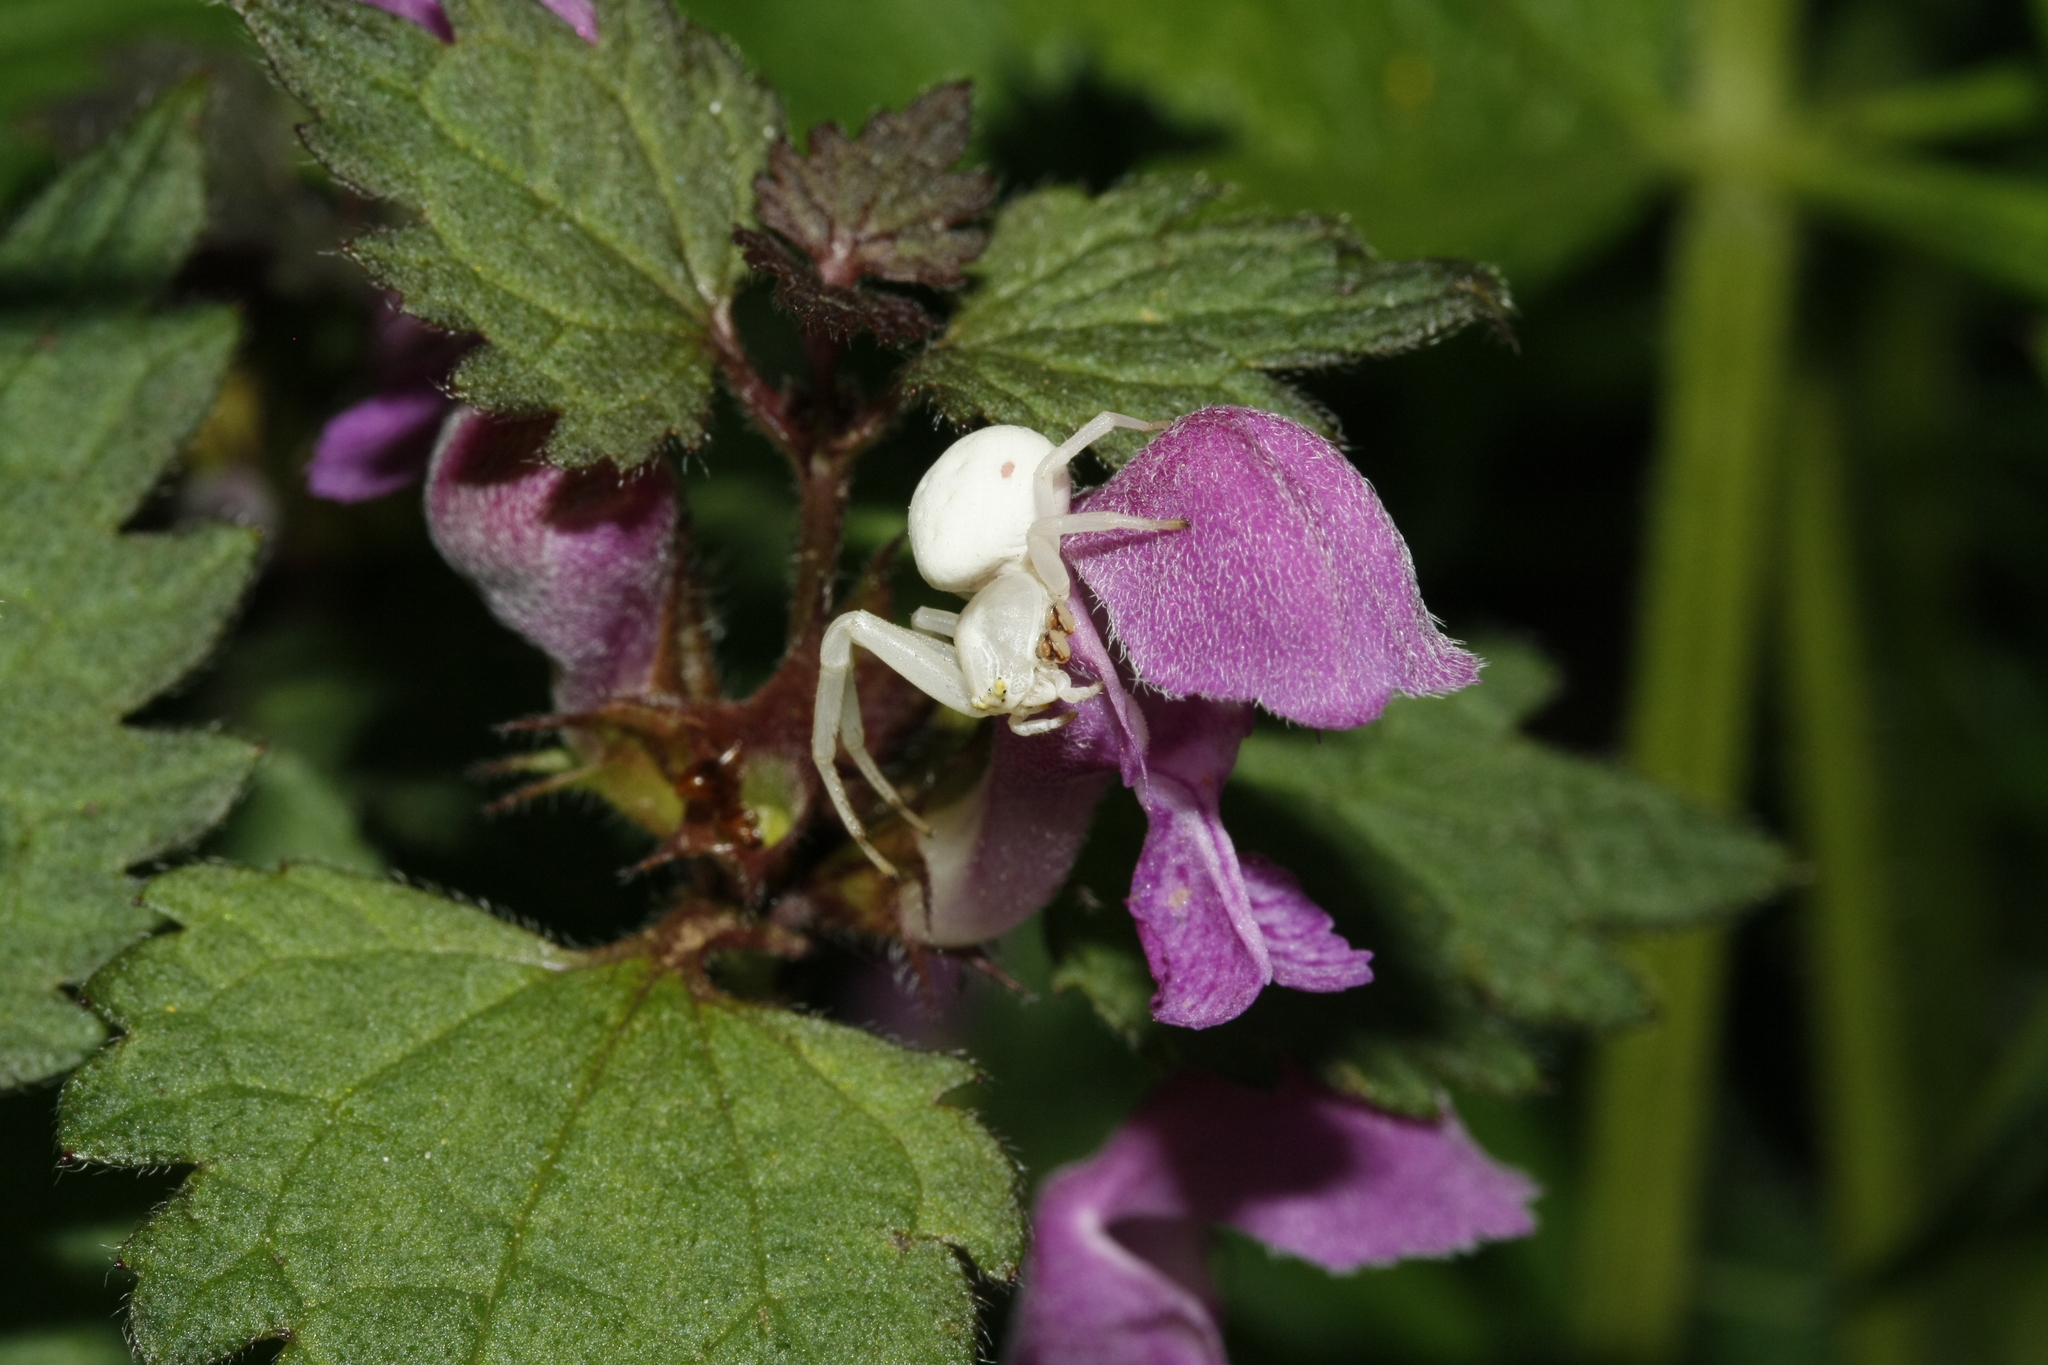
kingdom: Animalia
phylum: Arthropoda
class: Arachnida
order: Araneae
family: Thomisidae
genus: Misumena
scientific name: Misumena vatia
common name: Goldenrod crab spider
